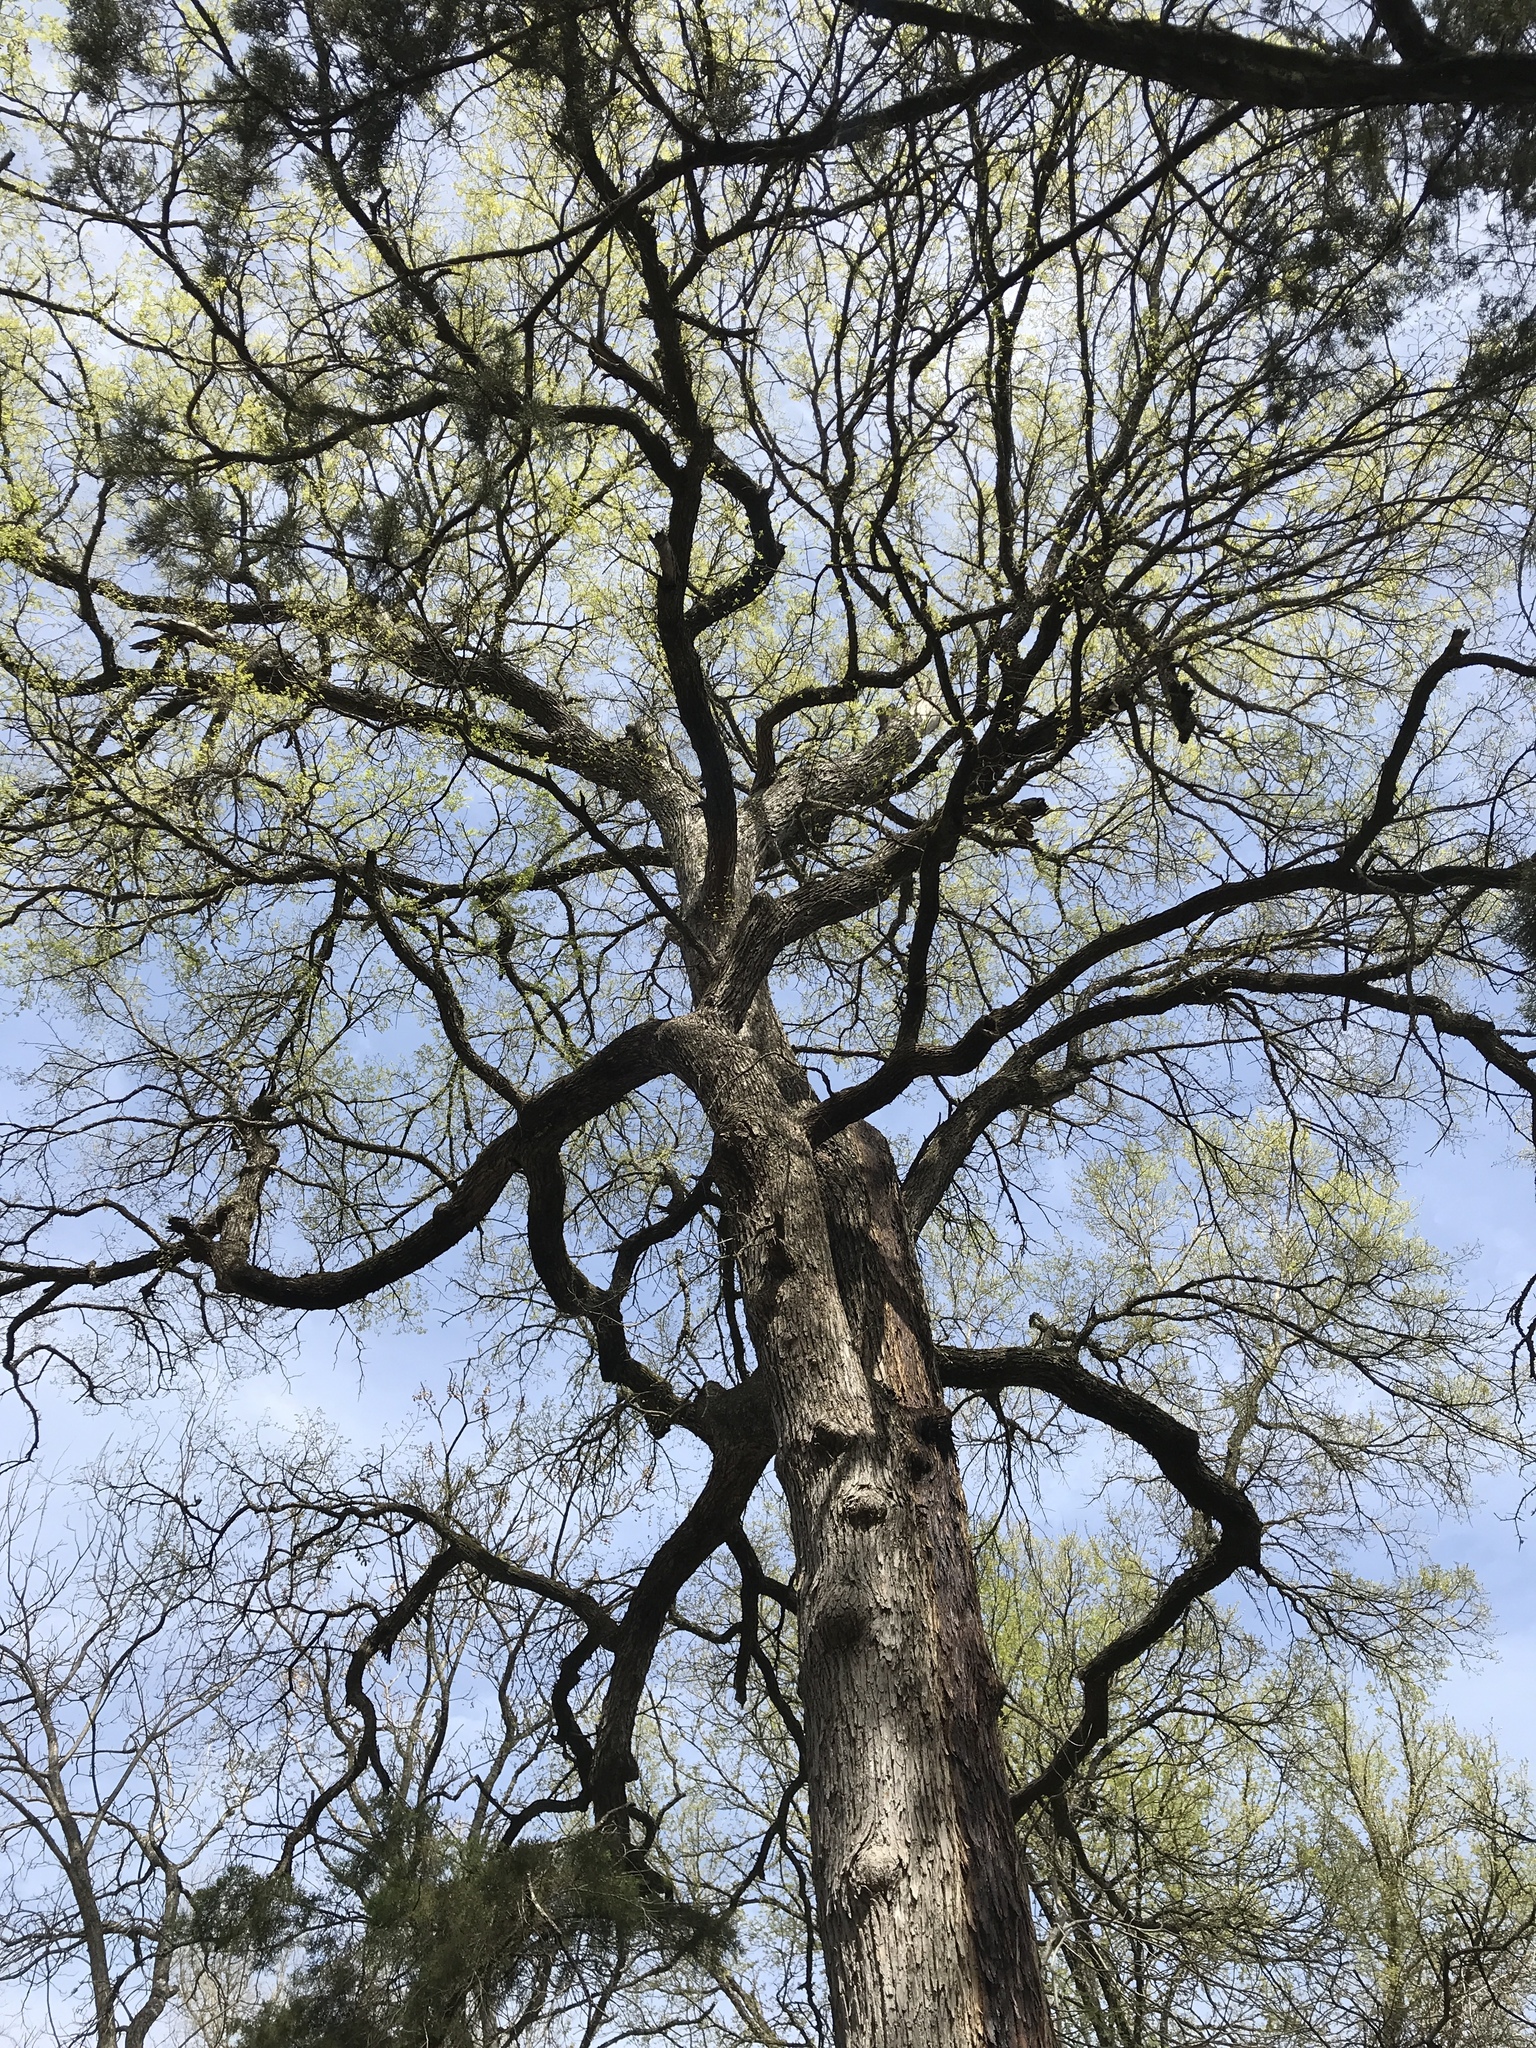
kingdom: Plantae
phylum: Tracheophyta
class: Magnoliopsida
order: Rosales
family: Ulmaceae
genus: Ulmus
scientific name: Ulmus crassifolia
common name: Basket elm
